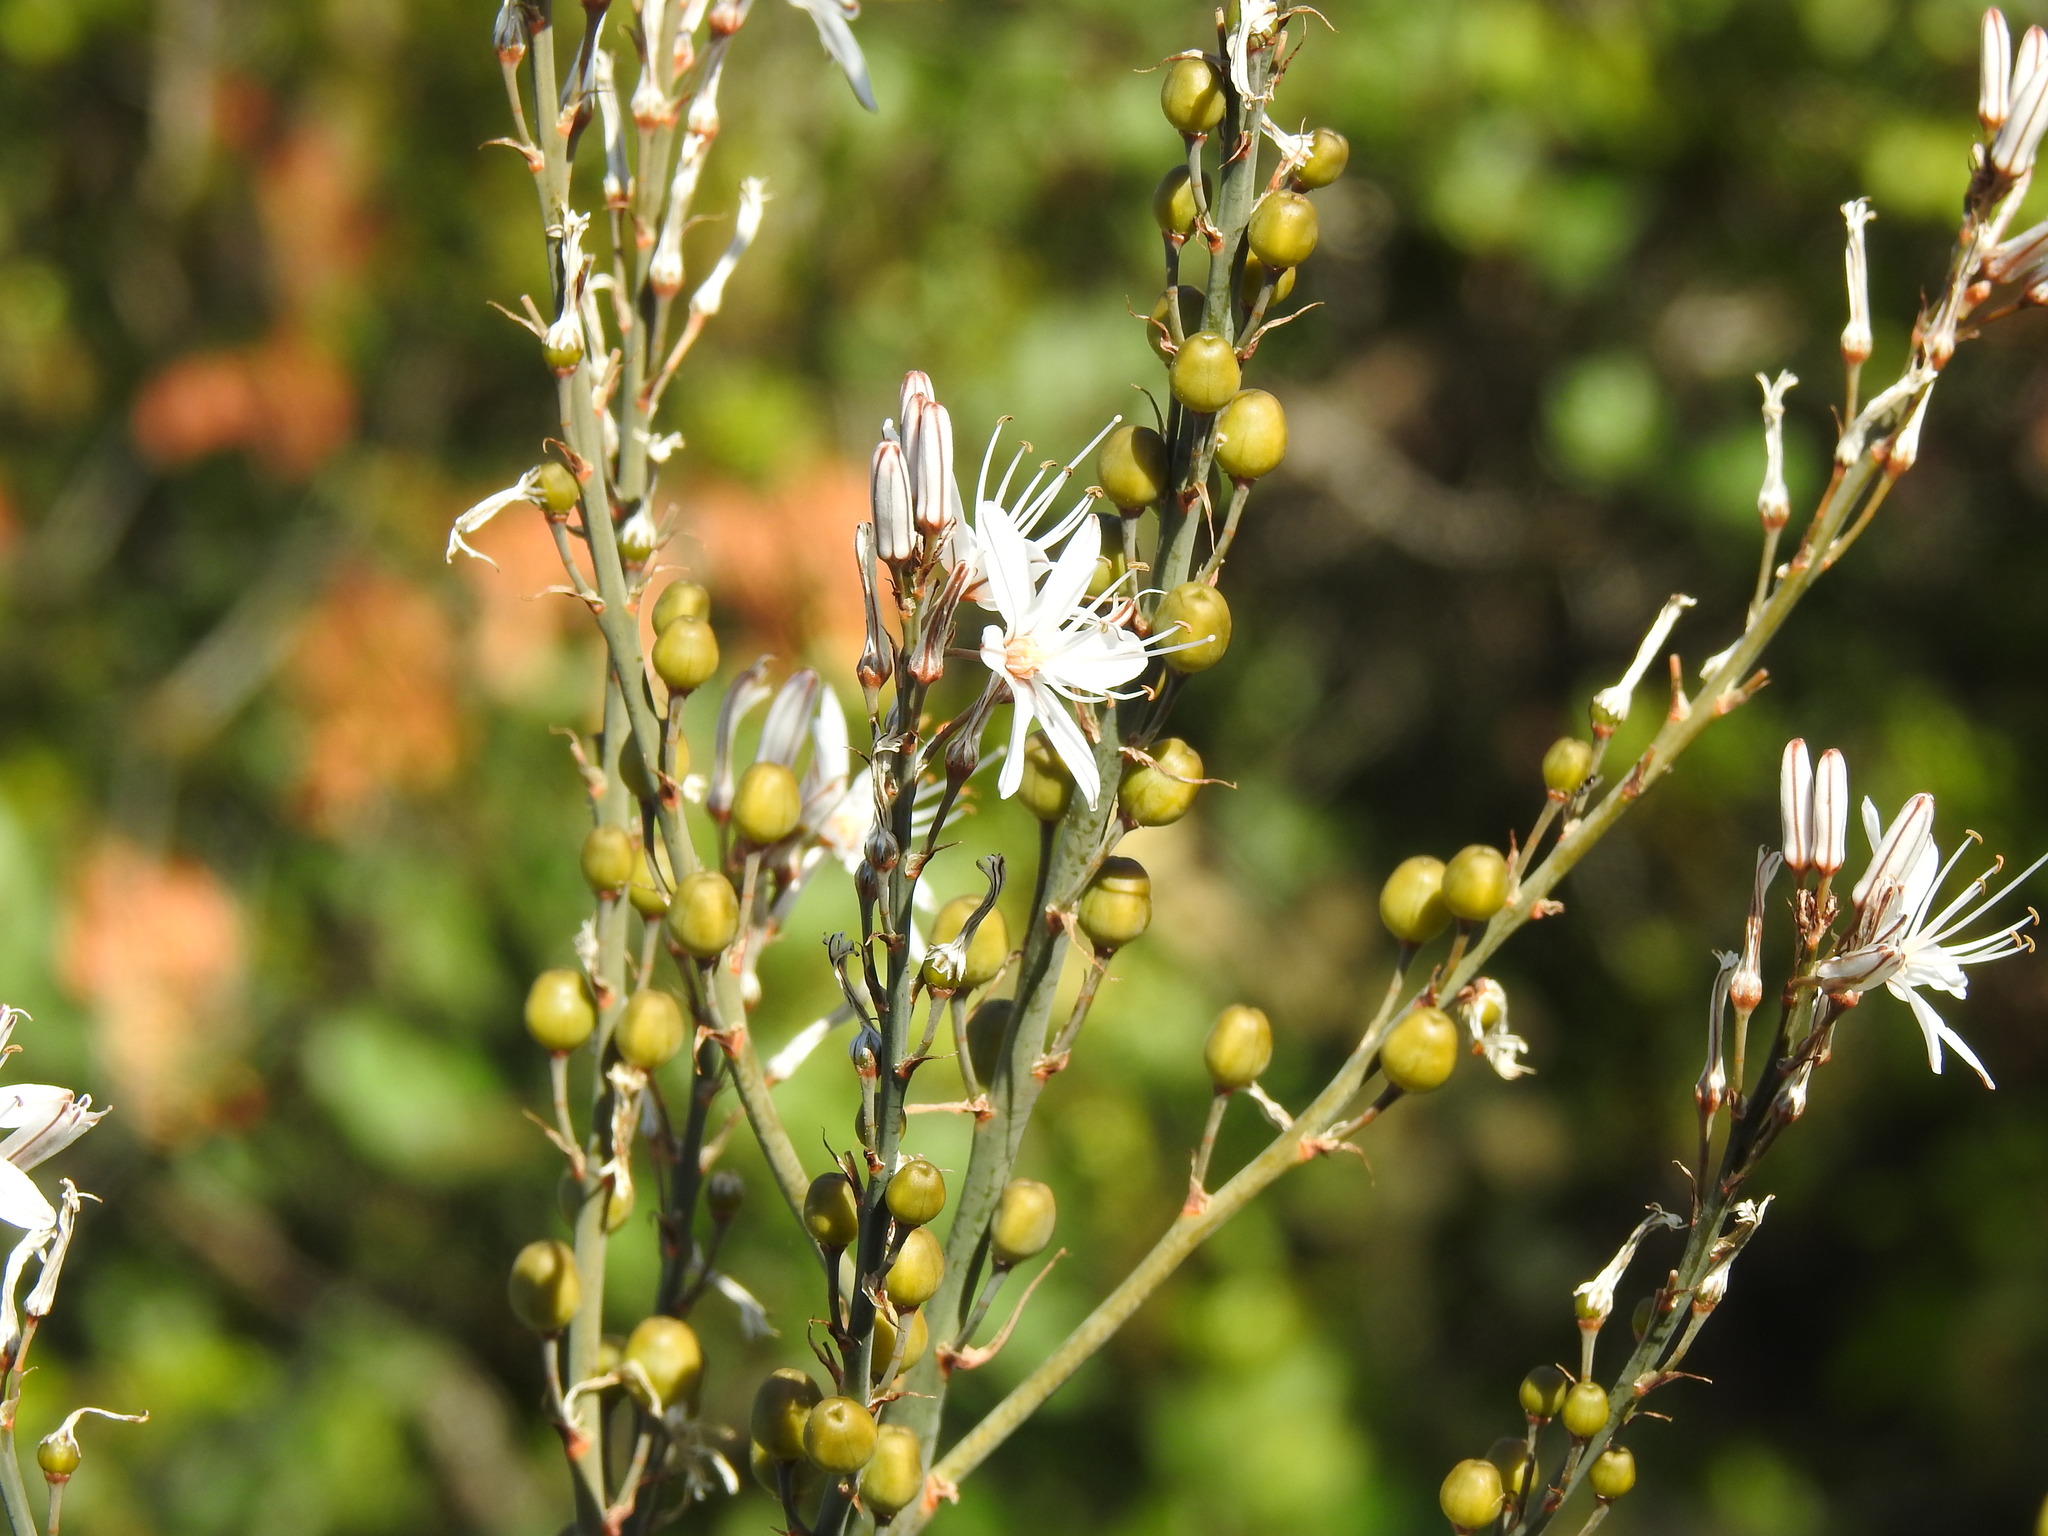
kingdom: Plantae
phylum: Tracheophyta
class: Liliopsida
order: Asparagales
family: Asphodelaceae
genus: Asphodelus
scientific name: Asphodelus ramosus
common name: Silverrod
